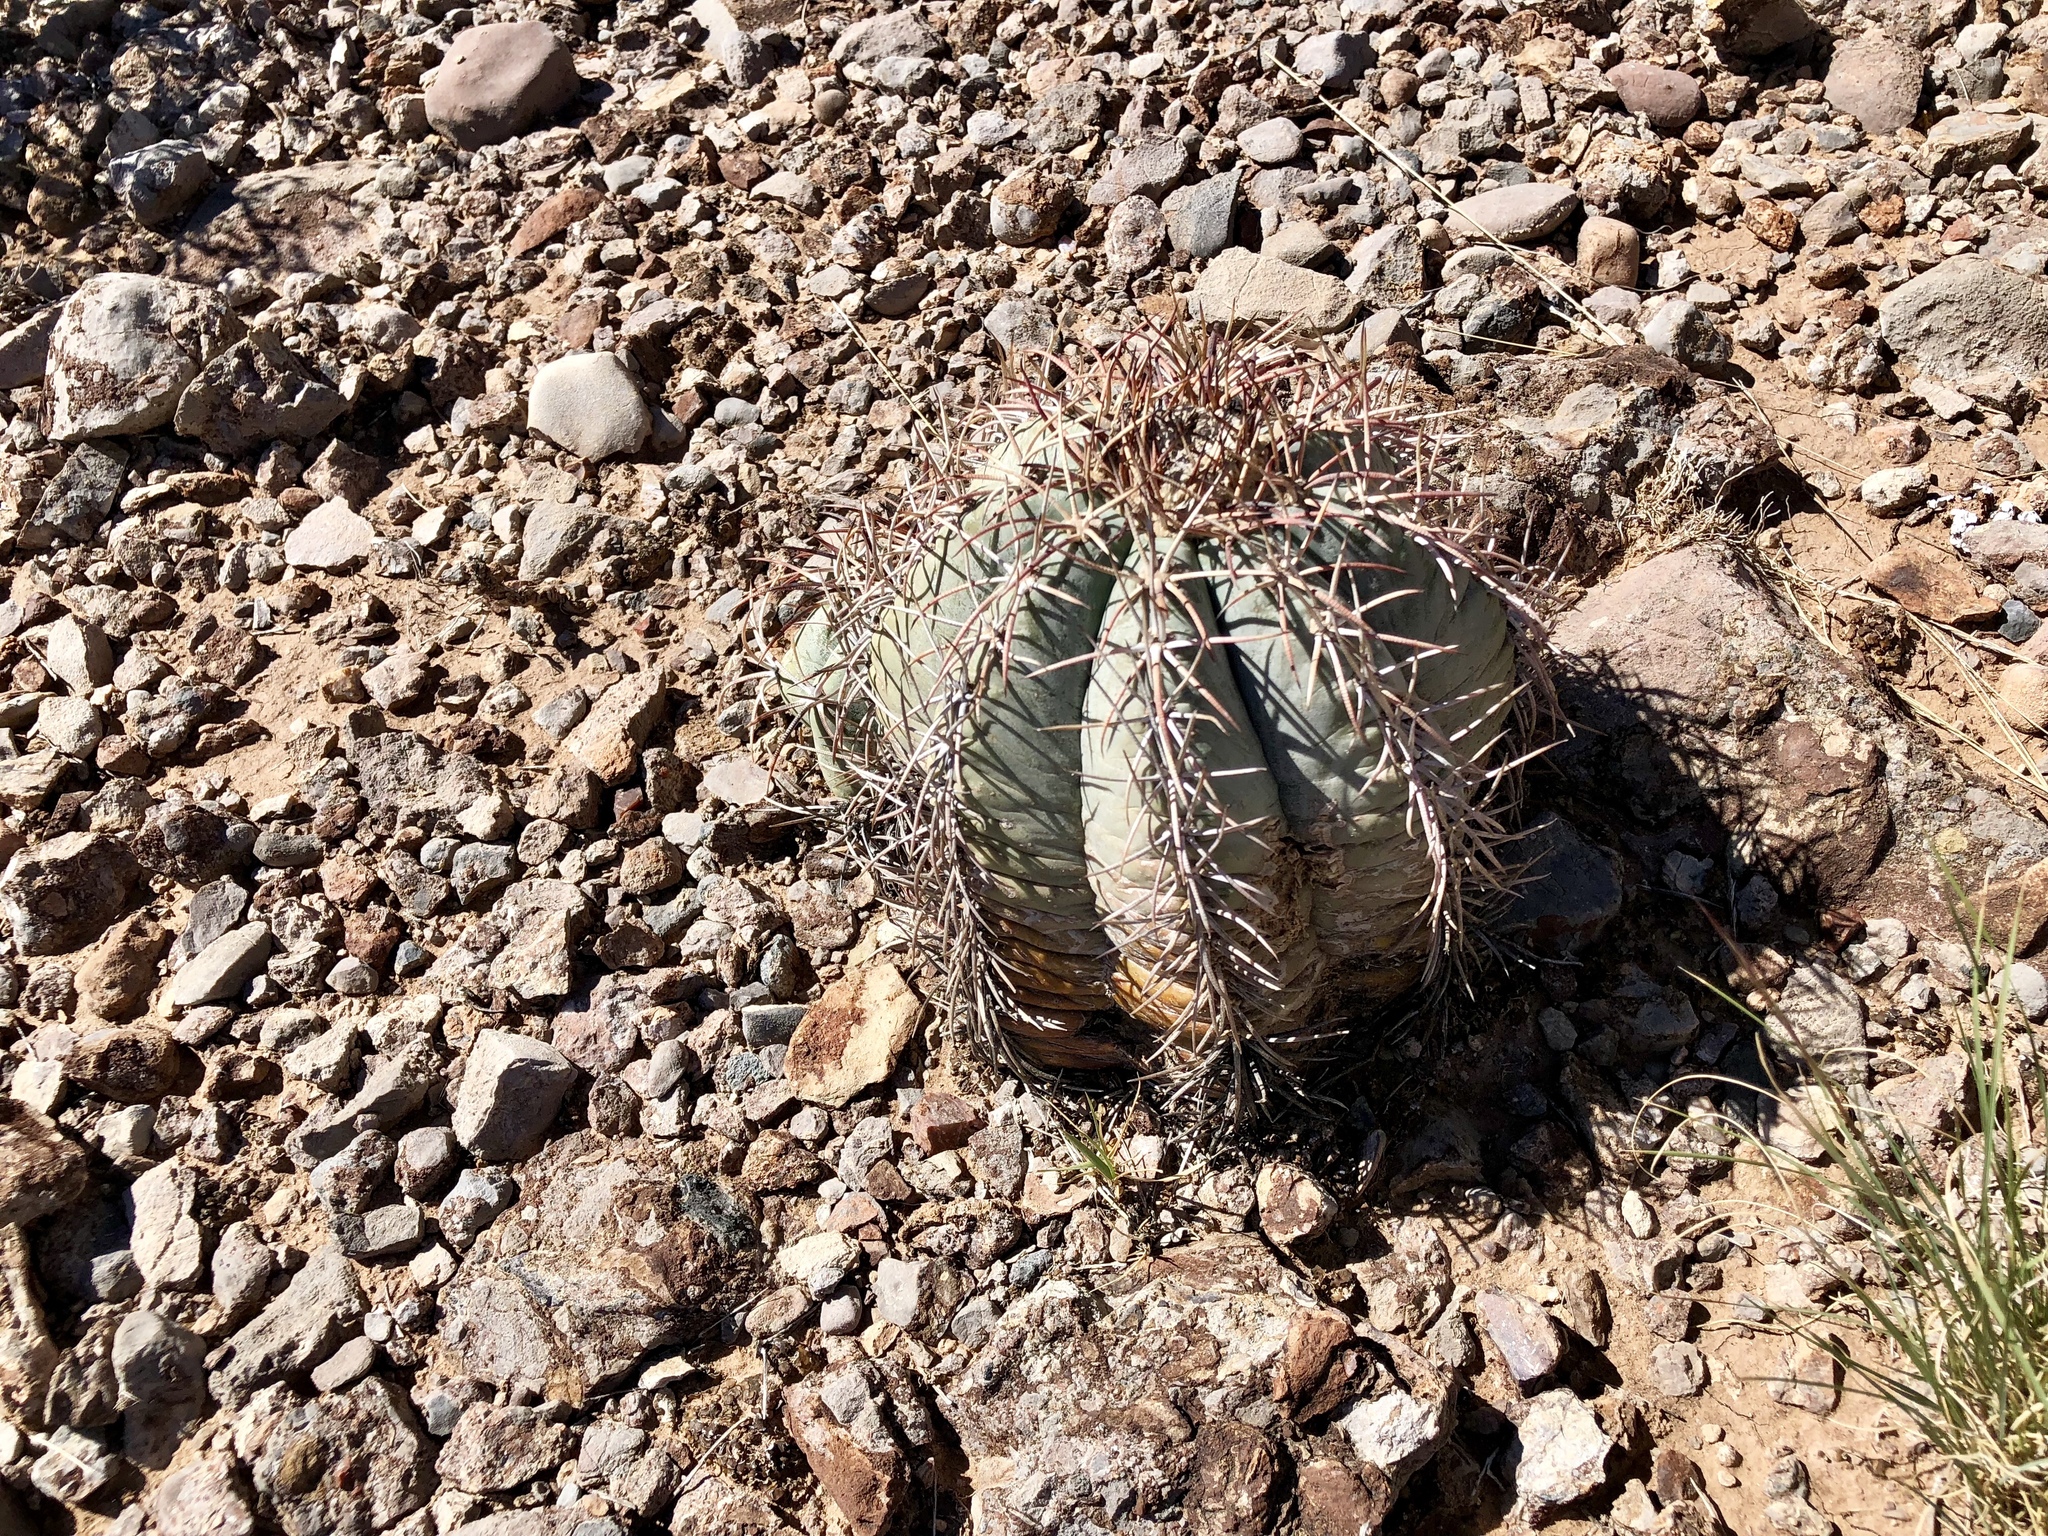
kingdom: Plantae
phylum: Tracheophyta
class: Magnoliopsida
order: Caryophyllales
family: Cactaceae
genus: Echinocactus
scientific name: Echinocactus horizonthalonius
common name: Devilshead
